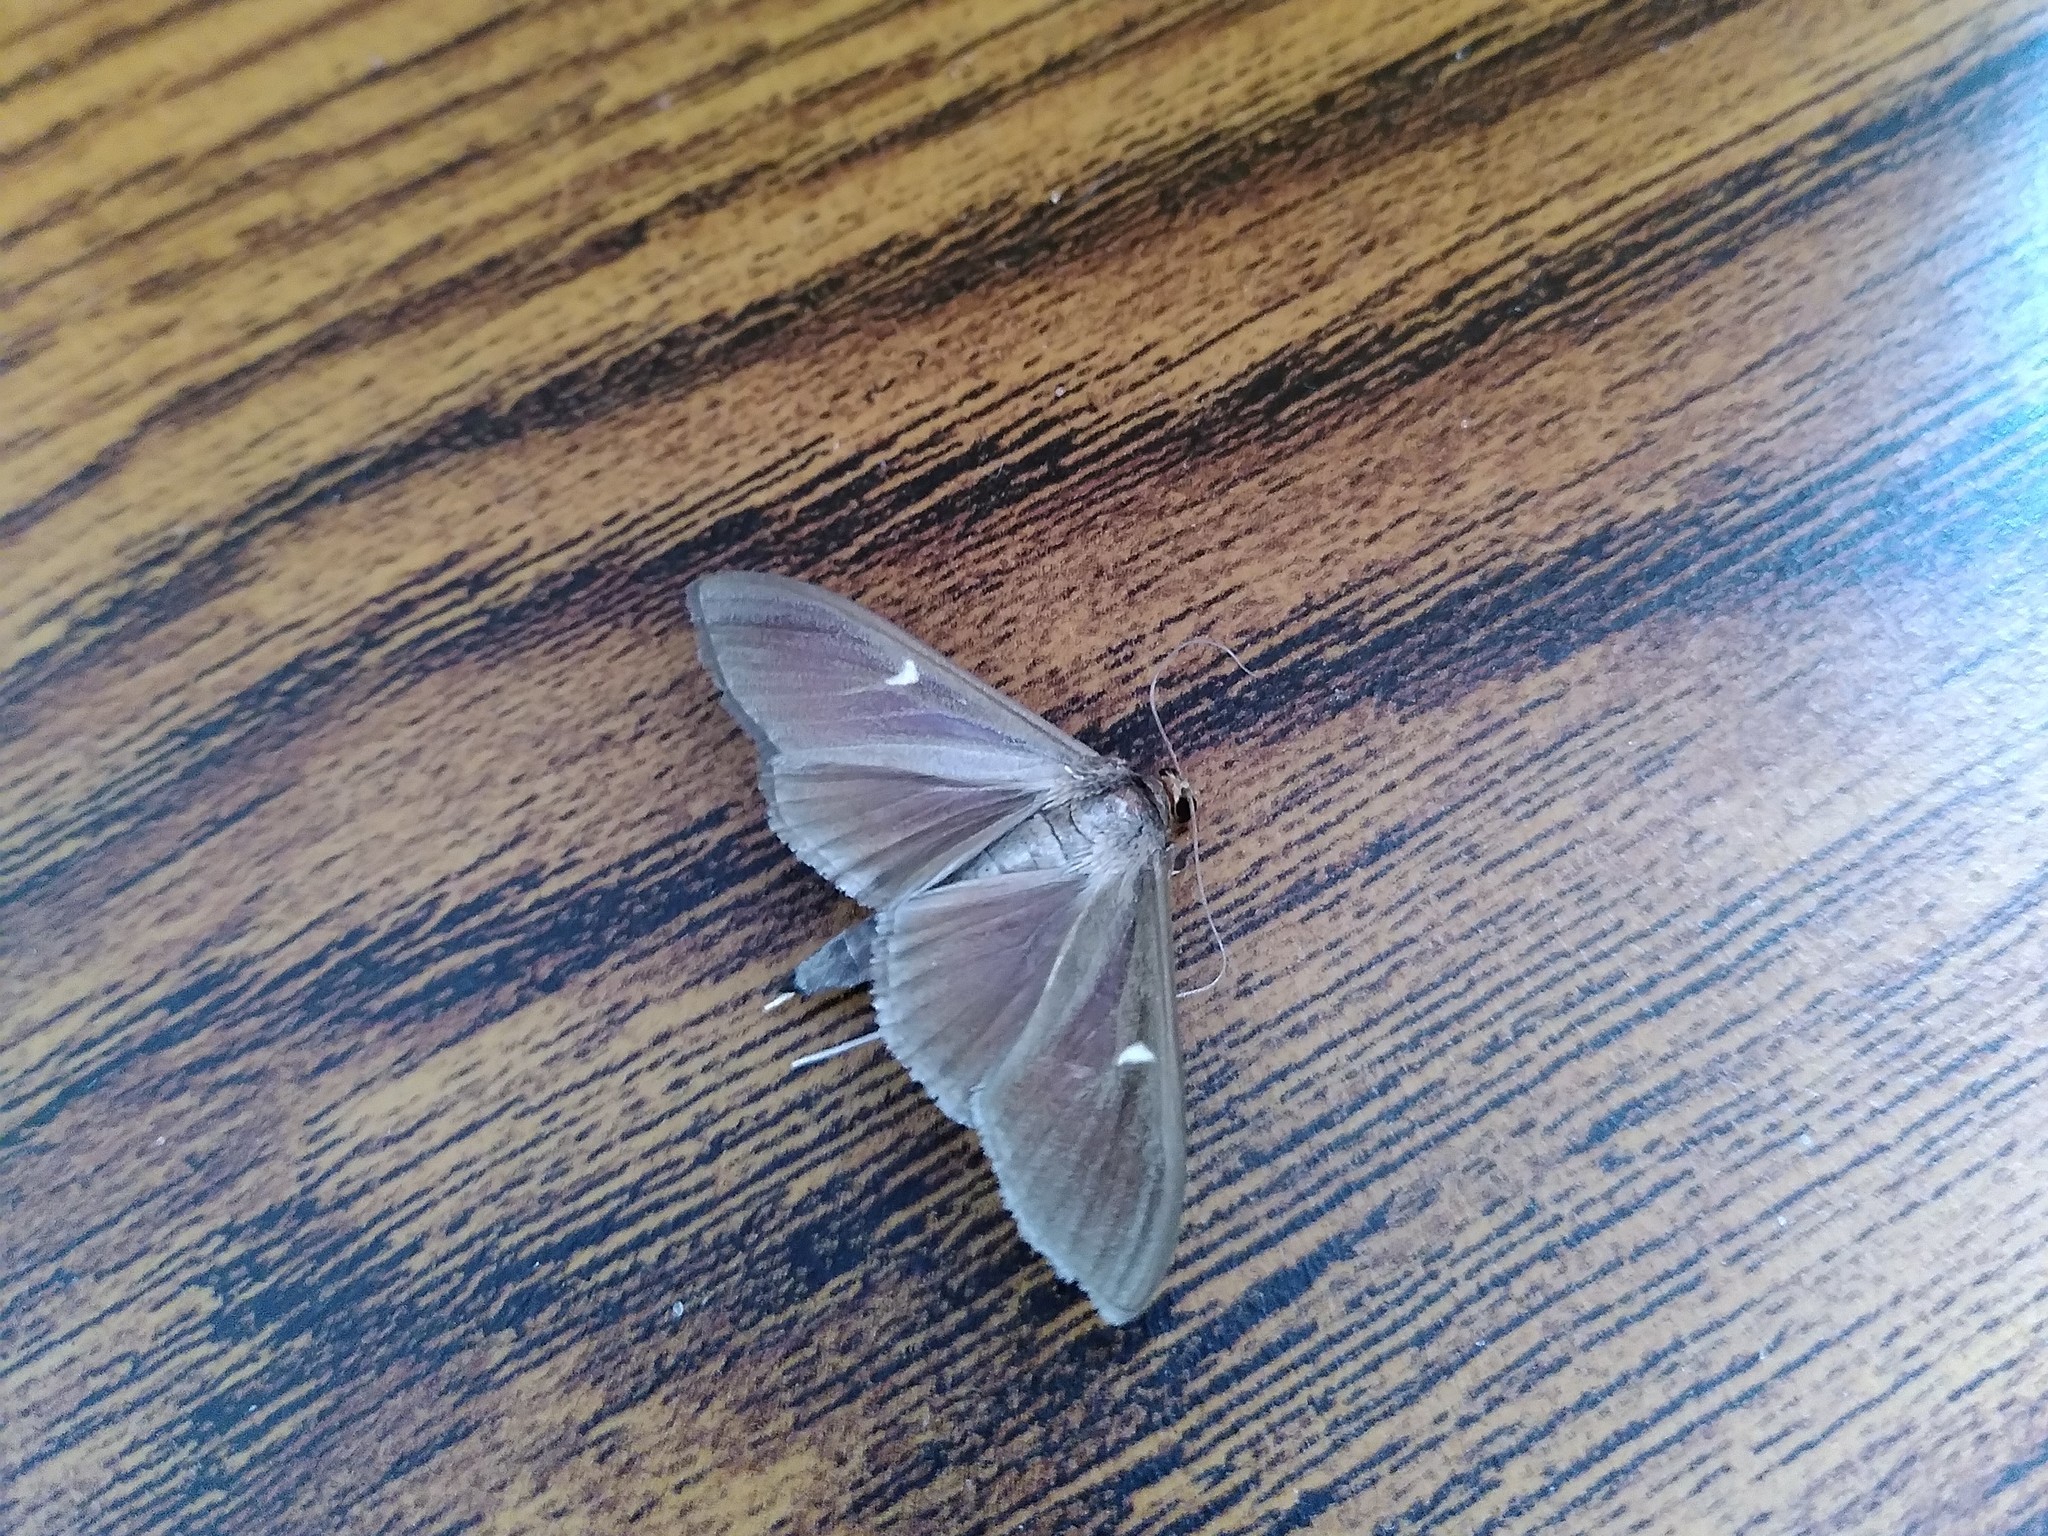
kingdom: Animalia
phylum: Arthropoda
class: Insecta
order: Lepidoptera
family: Crambidae
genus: Cydalima
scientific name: Cydalima perspectalis
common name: Box tree moth
